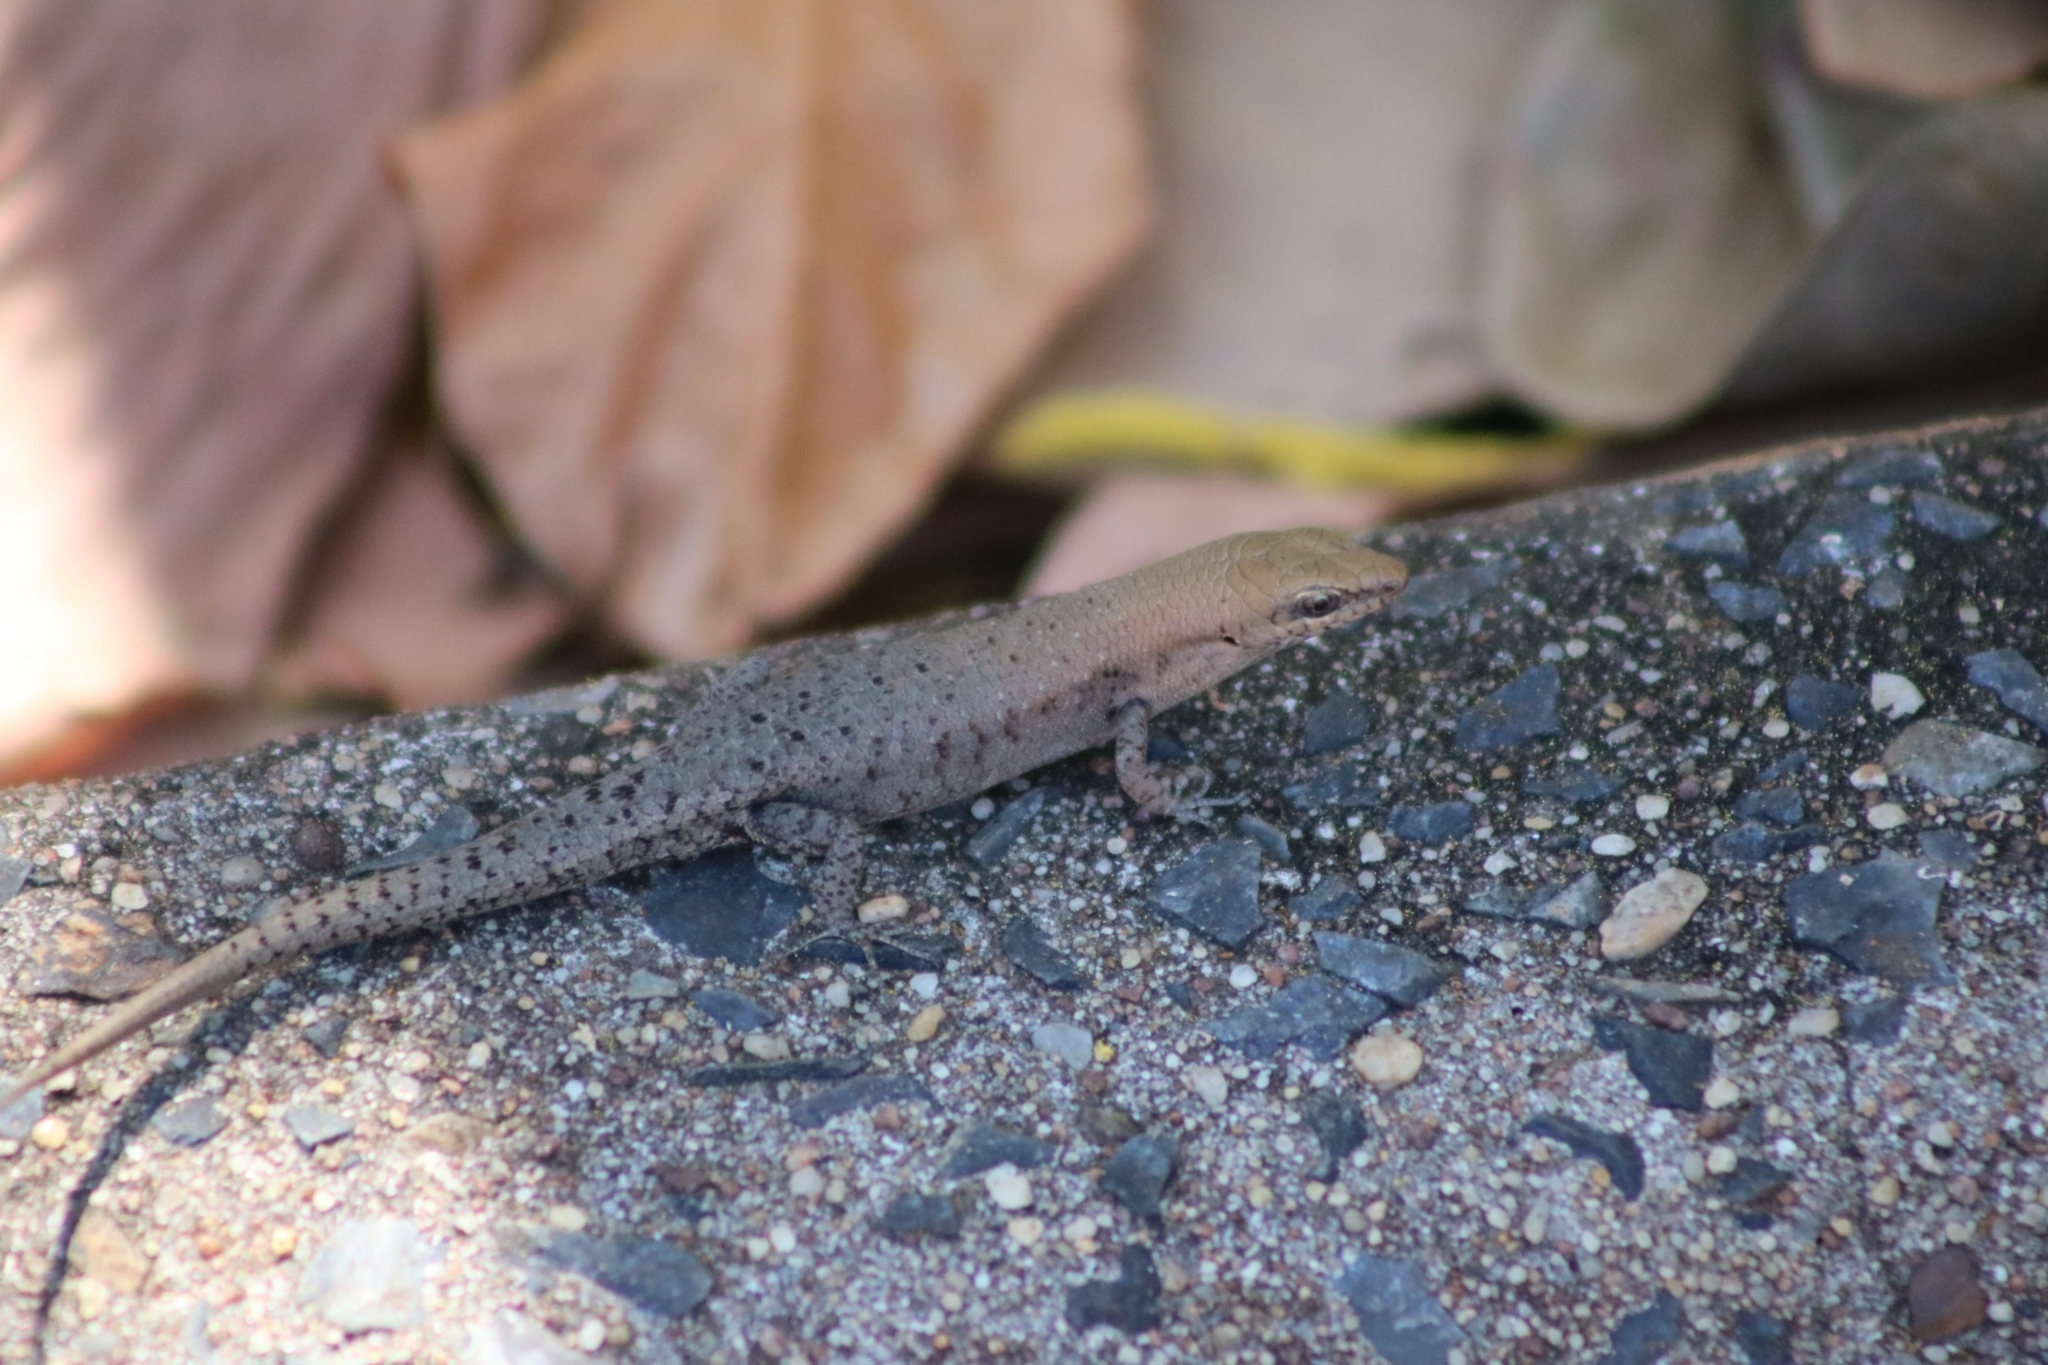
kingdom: Animalia
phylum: Chordata
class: Squamata
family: Scincidae
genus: Carlia
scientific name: Carlia amax
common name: Bauxite rainbow-skink
